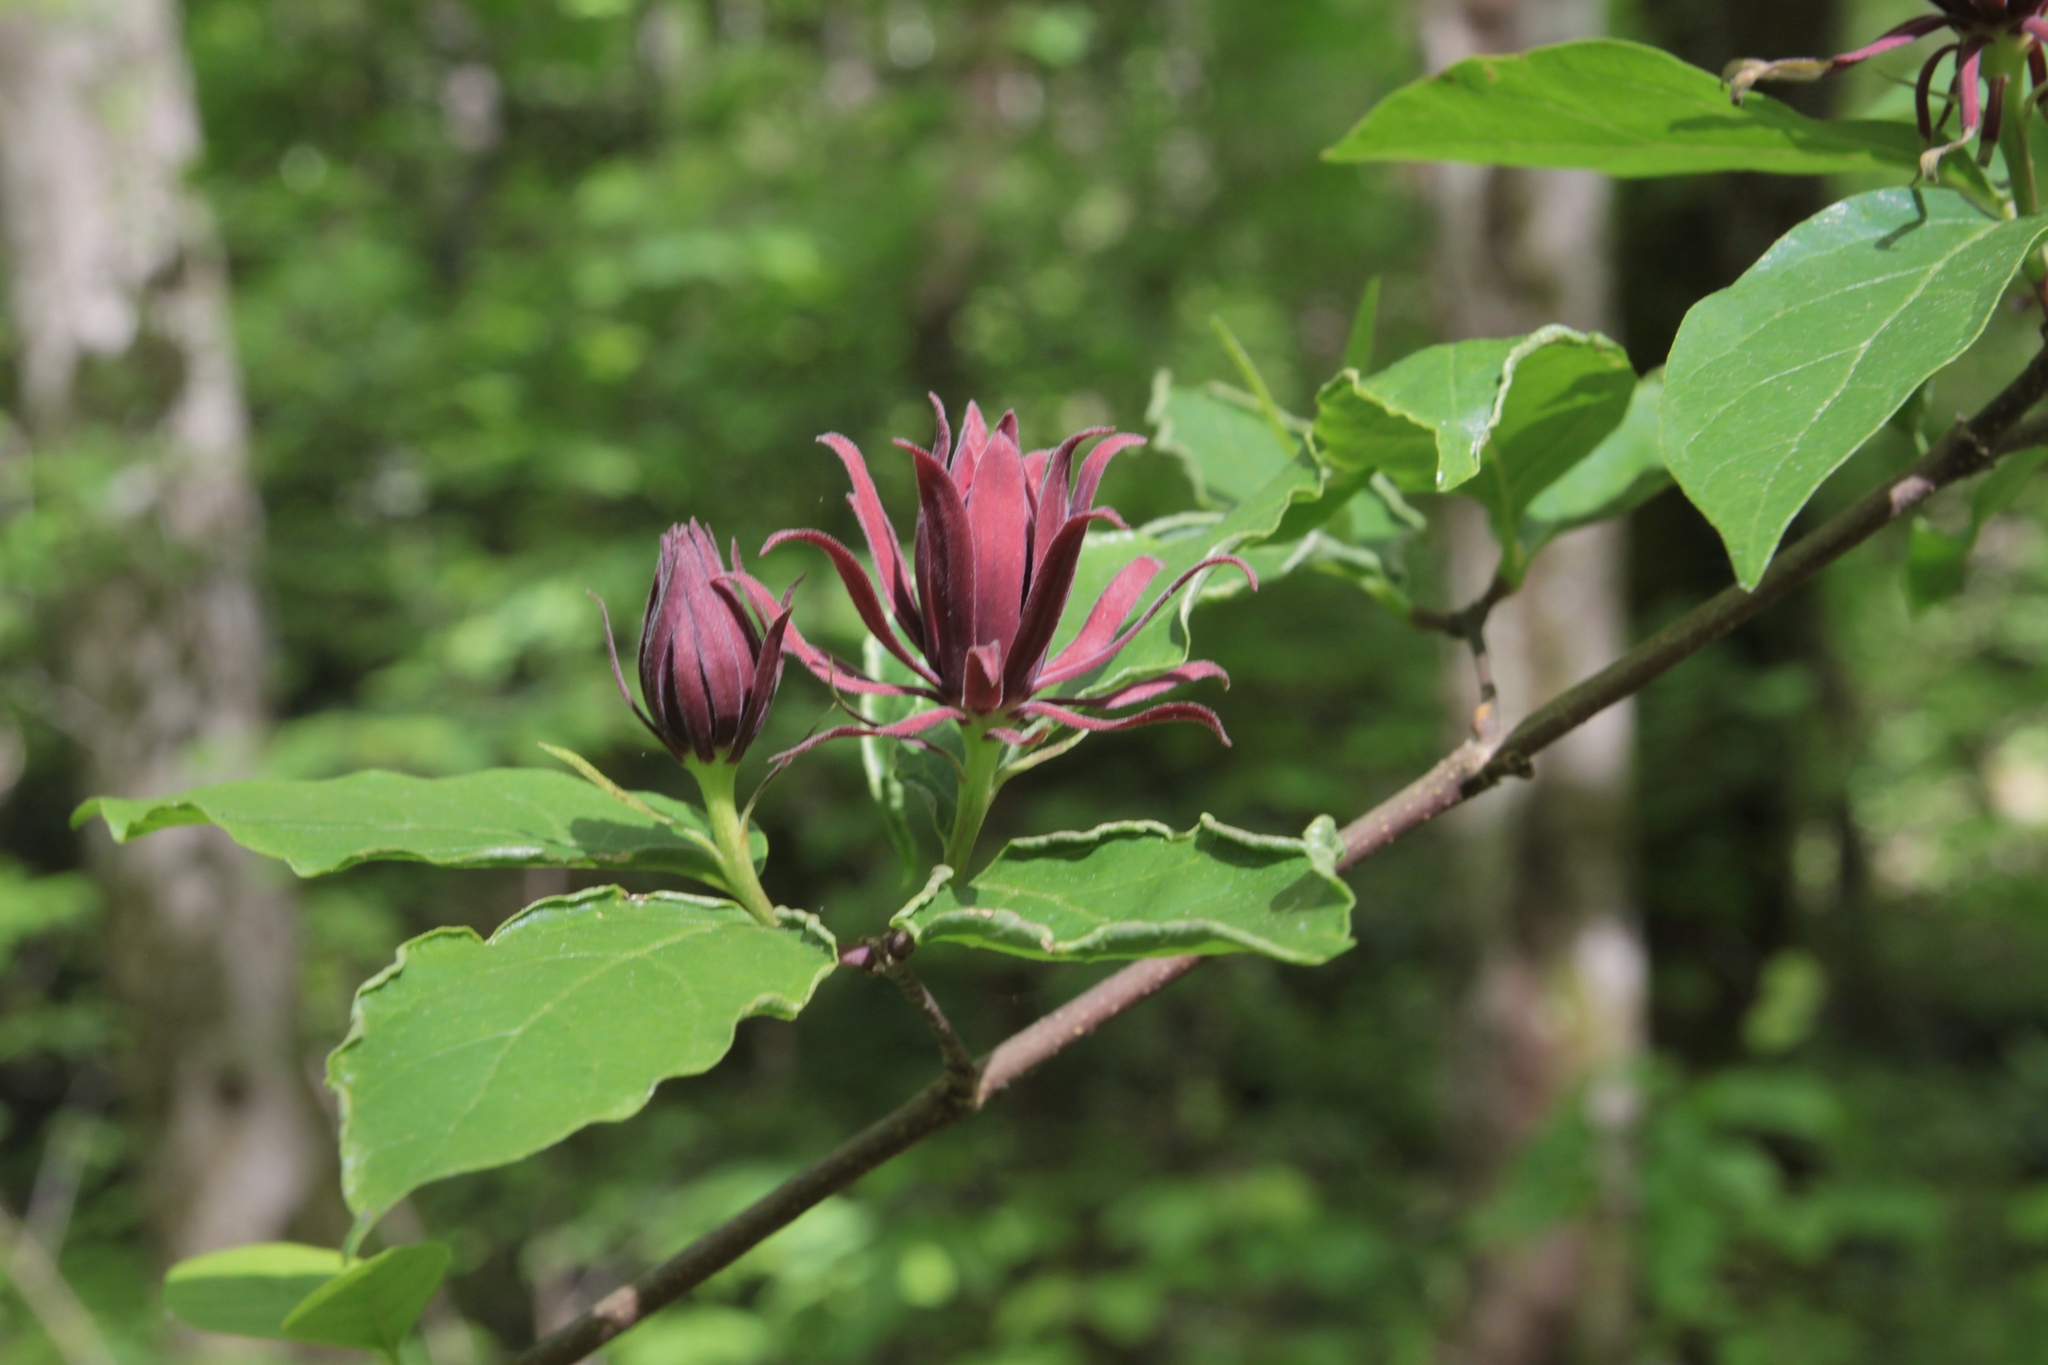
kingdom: Plantae
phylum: Tracheophyta
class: Magnoliopsida
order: Laurales
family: Calycanthaceae
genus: Calycanthus
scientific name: Calycanthus floridus
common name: Carolina-allspice
